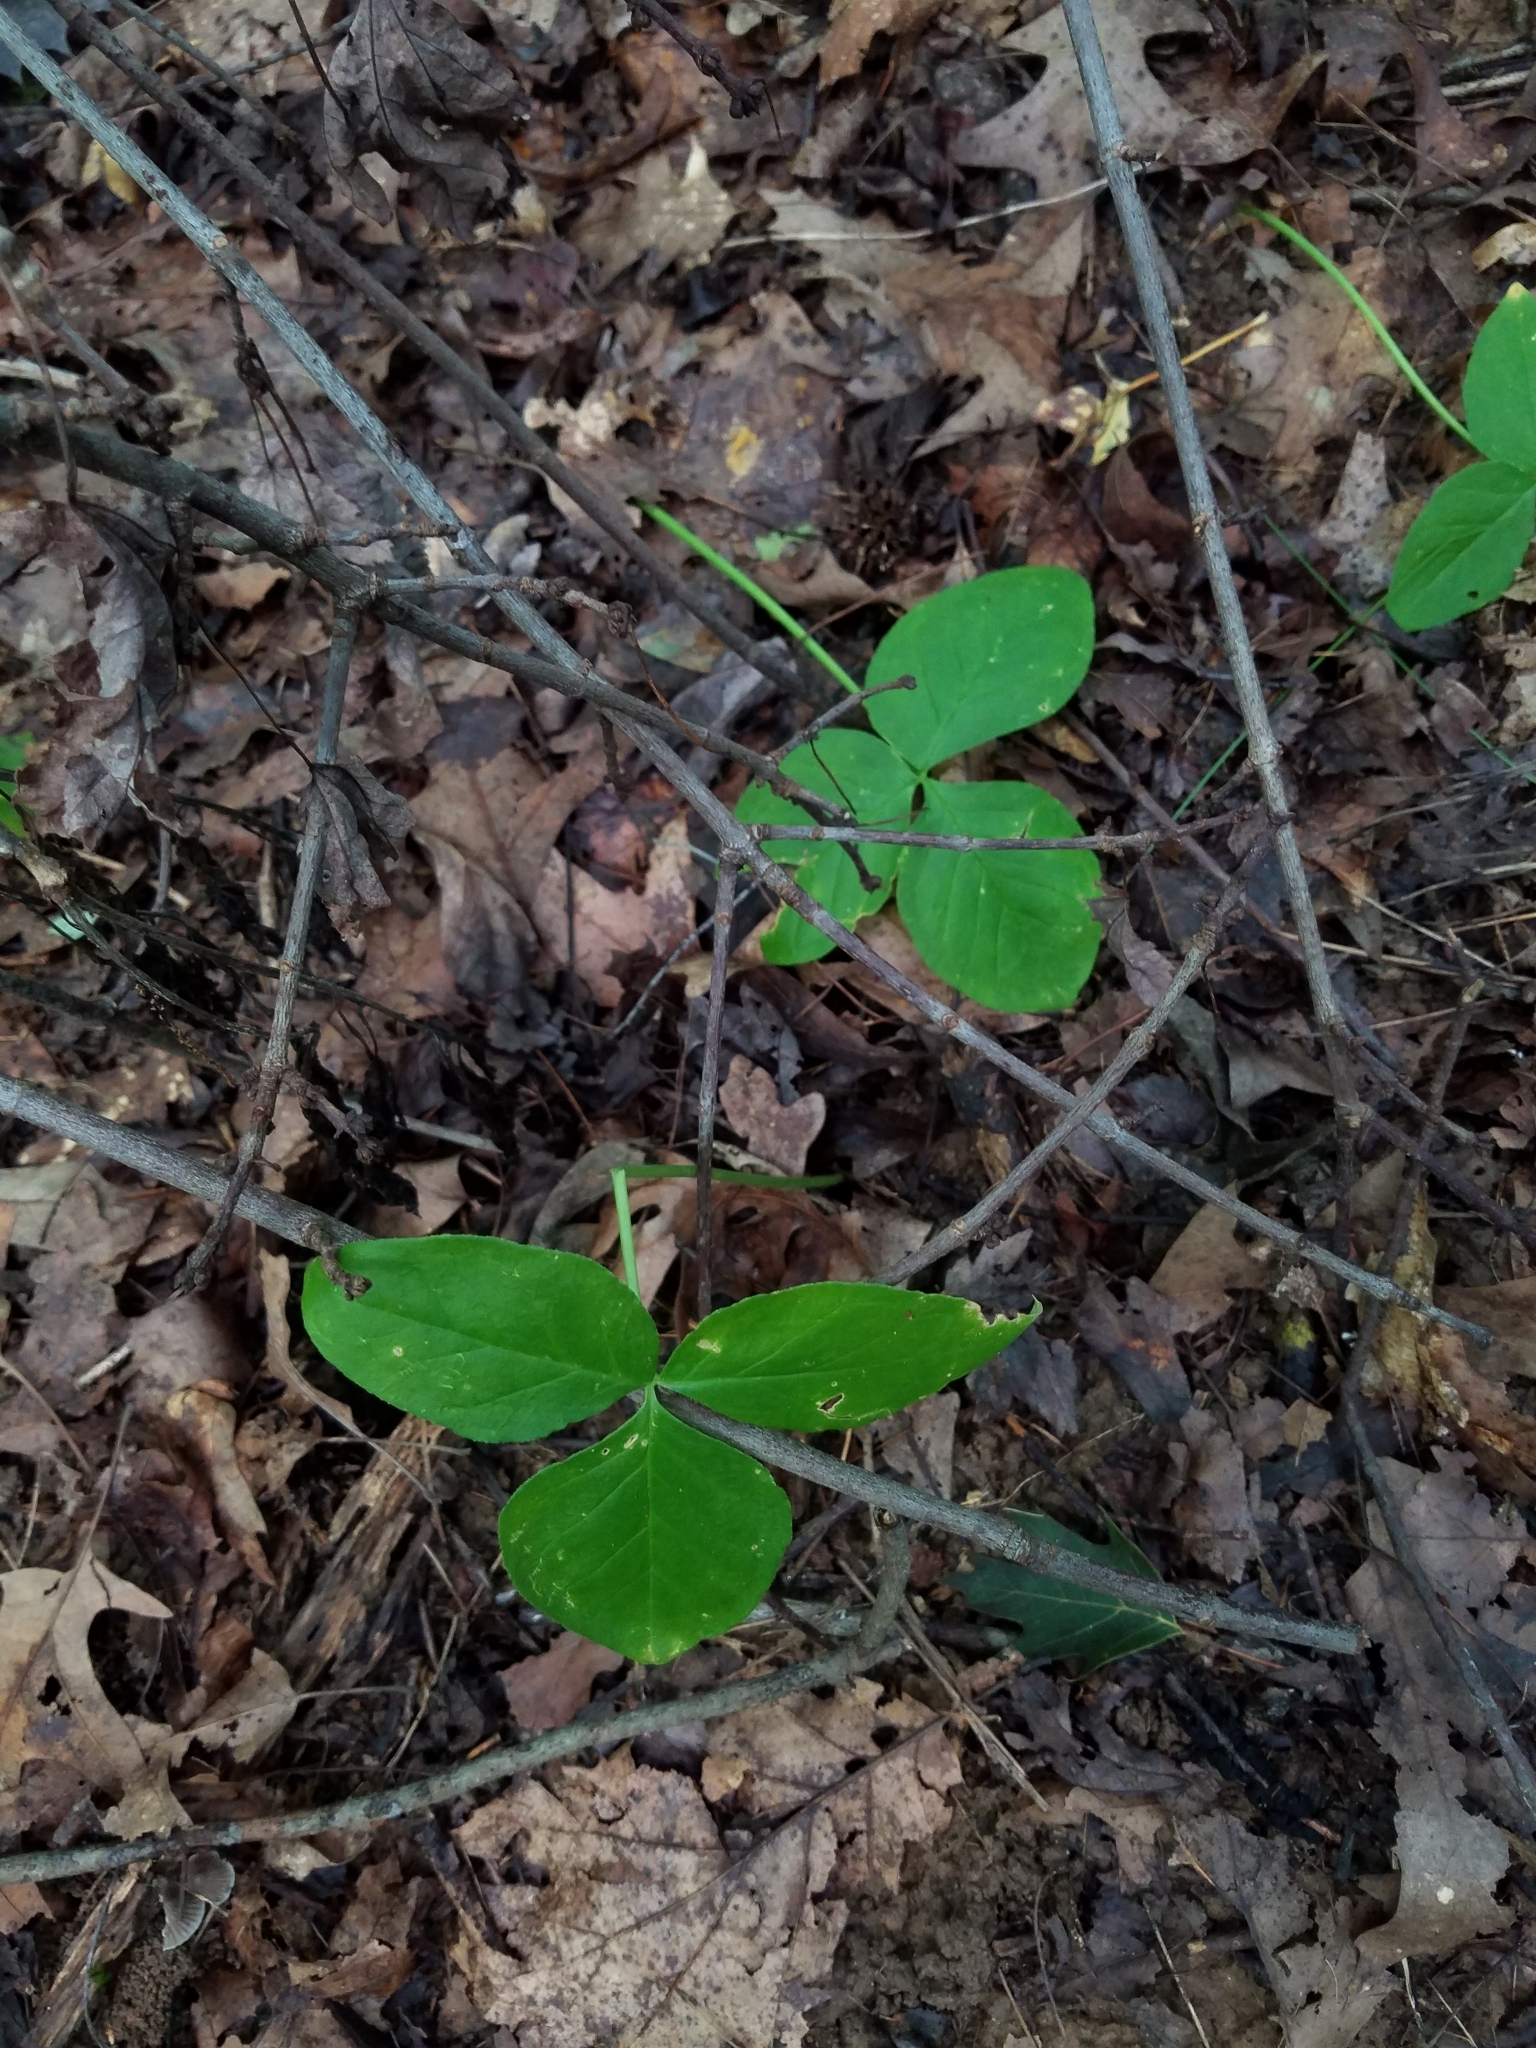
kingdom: Plantae
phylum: Tracheophyta
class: Liliopsida
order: Alismatales
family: Araceae
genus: Arisaema
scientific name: Arisaema triphyllum
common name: Jack-in-the-pulpit
